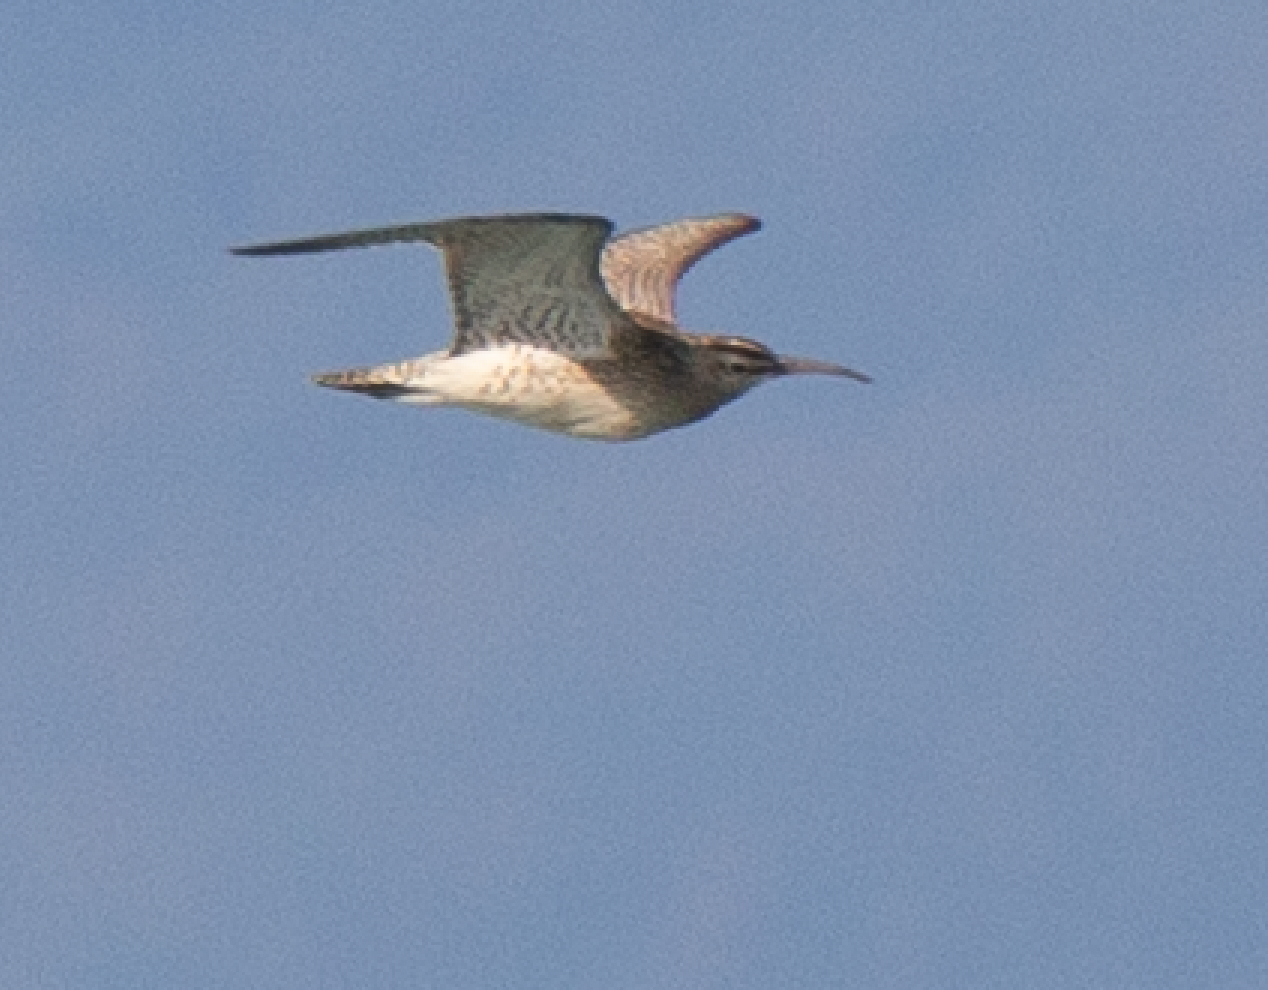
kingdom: Animalia
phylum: Chordata
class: Aves
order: Charadriiformes
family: Scolopacidae
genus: Numenius
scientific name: Numenius phaeopus
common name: Whimbrel
